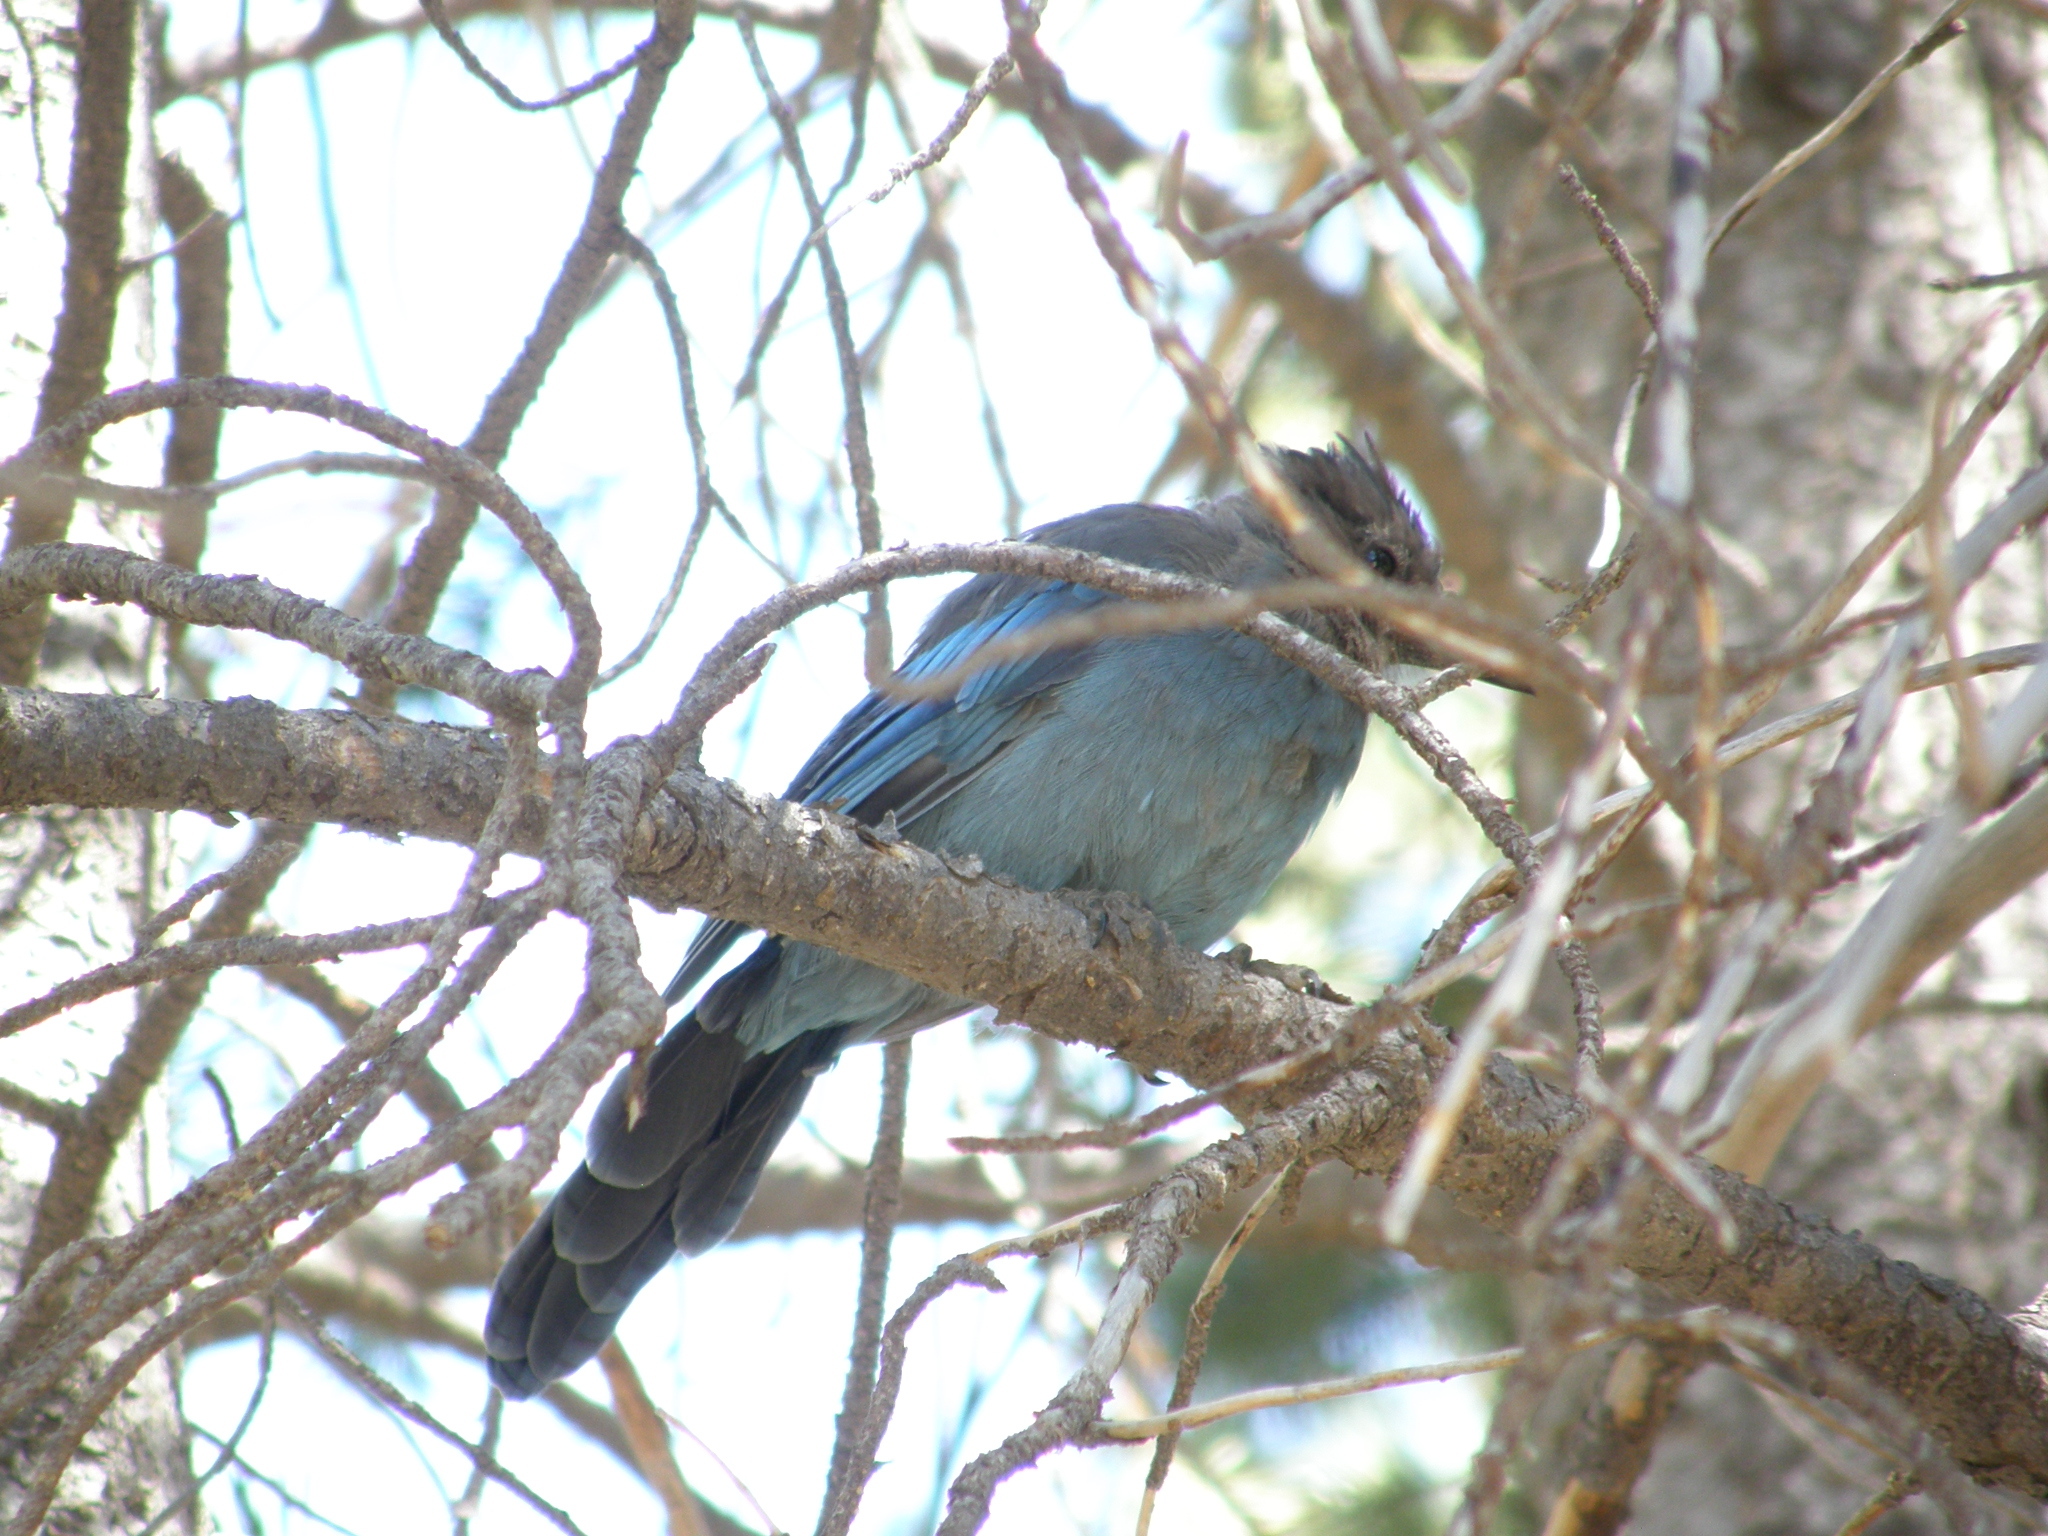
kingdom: Animalia
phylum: Chordata
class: Aves
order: Passeriformes
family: Corvidae
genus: Cyanocitta
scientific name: Cyanocitta stelleri
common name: Steller's jay
